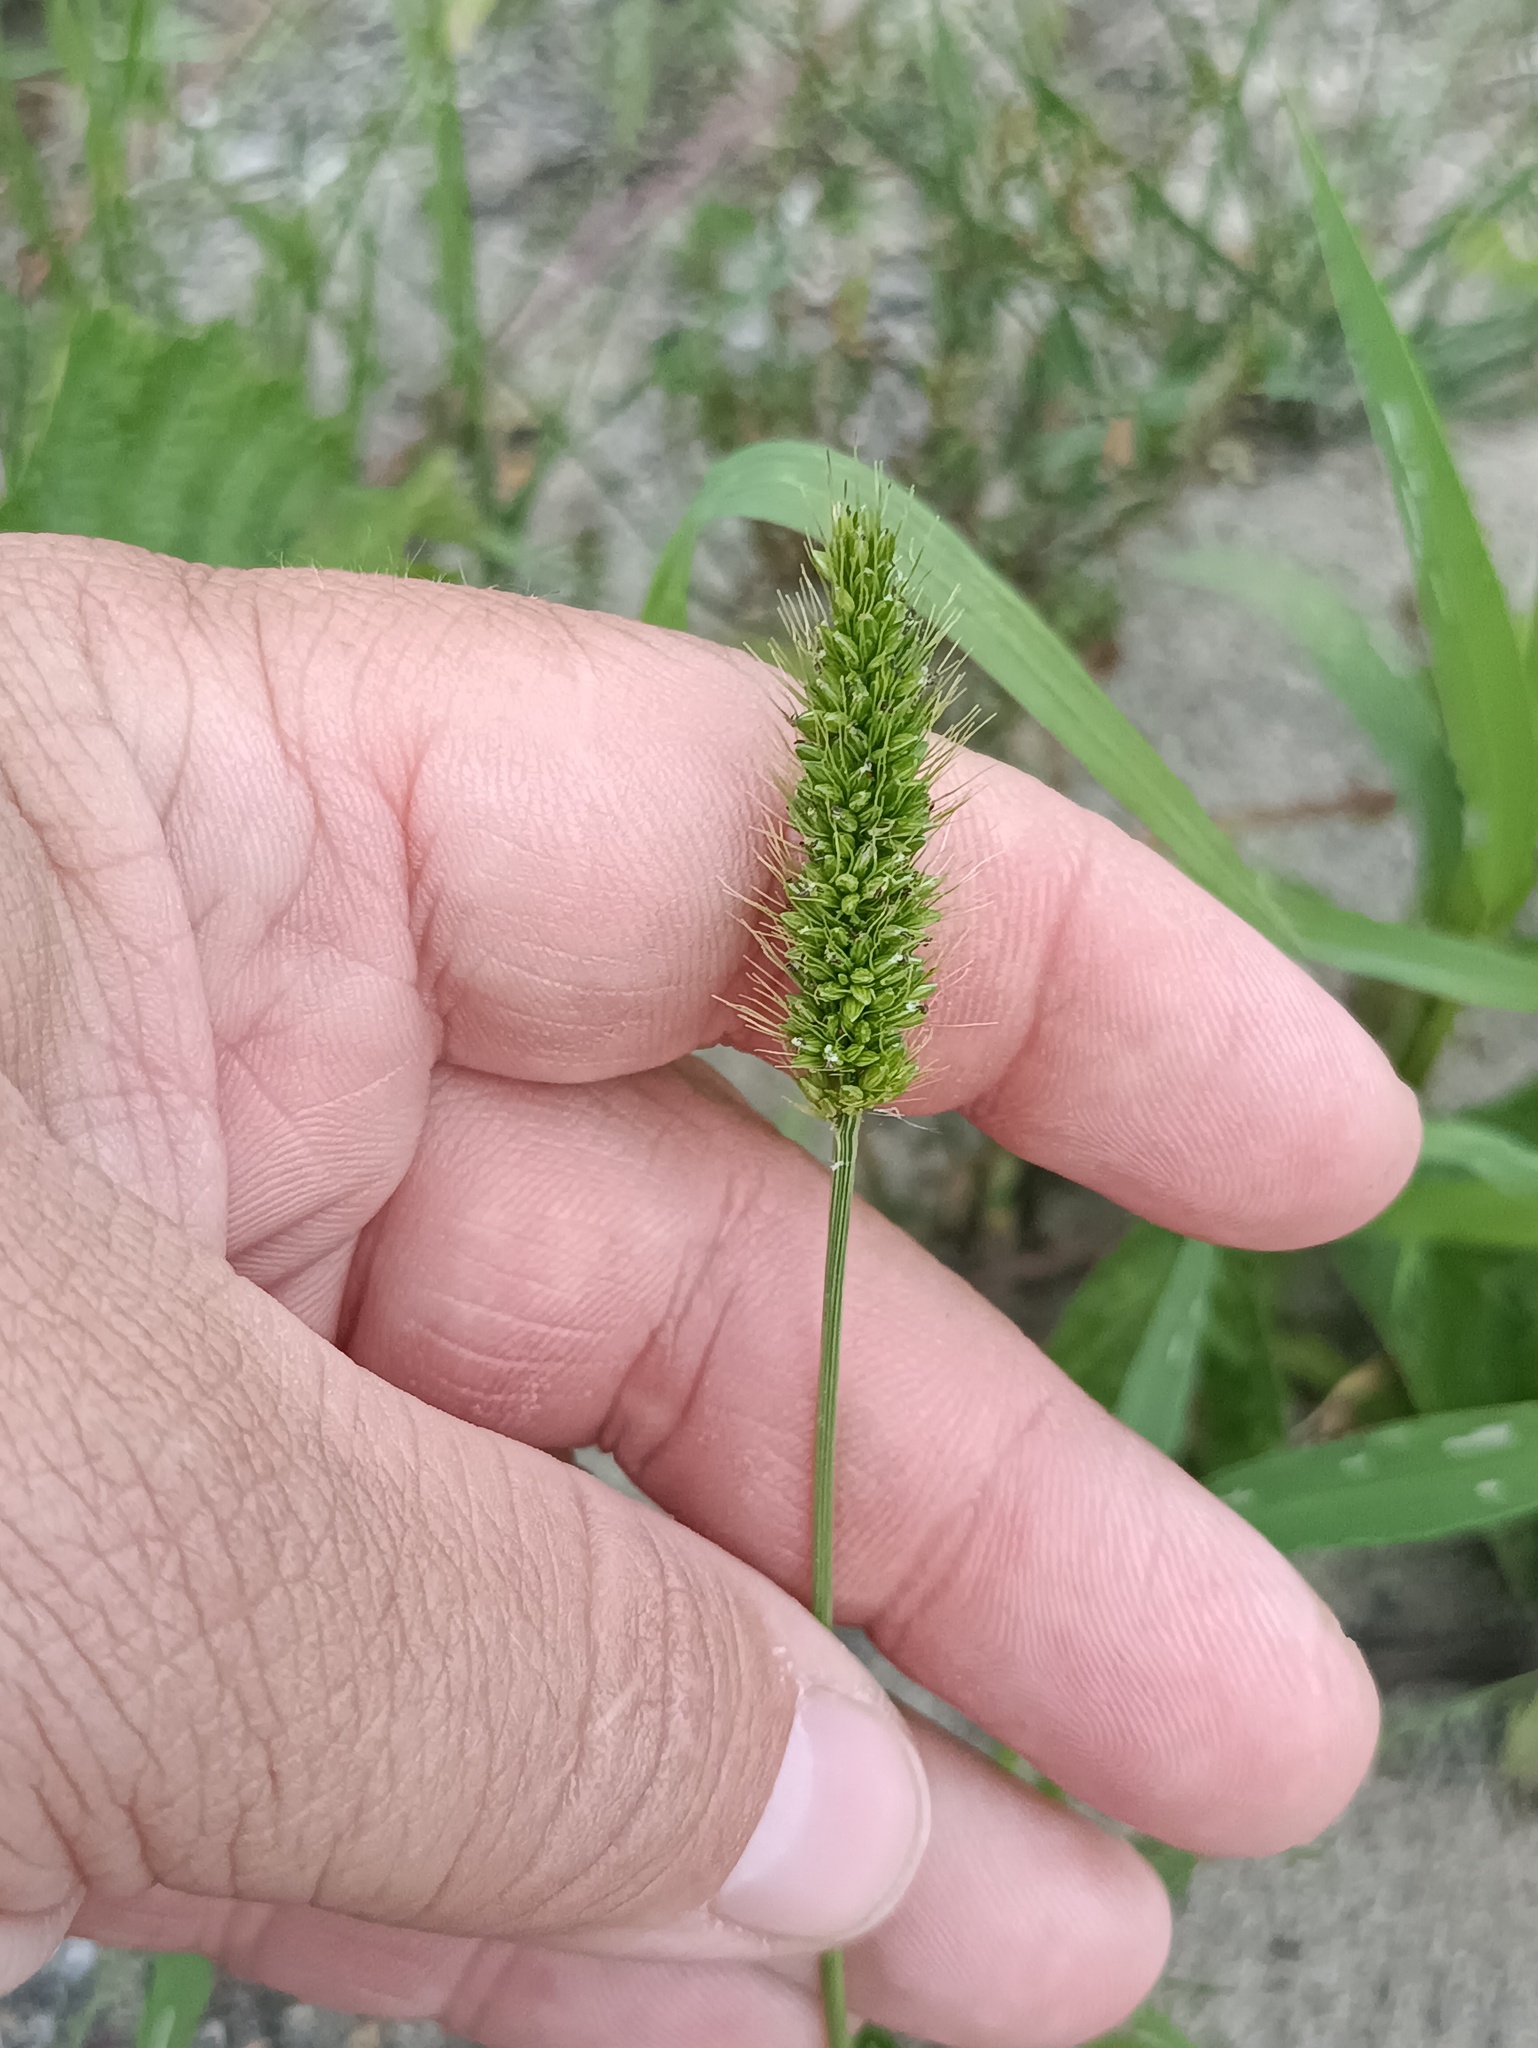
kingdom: Plantae
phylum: Tracheophyta
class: Liliopsida
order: Poales
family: Poaceae
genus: Setaria
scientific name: Setaria viridis
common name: Green bristlegrass
